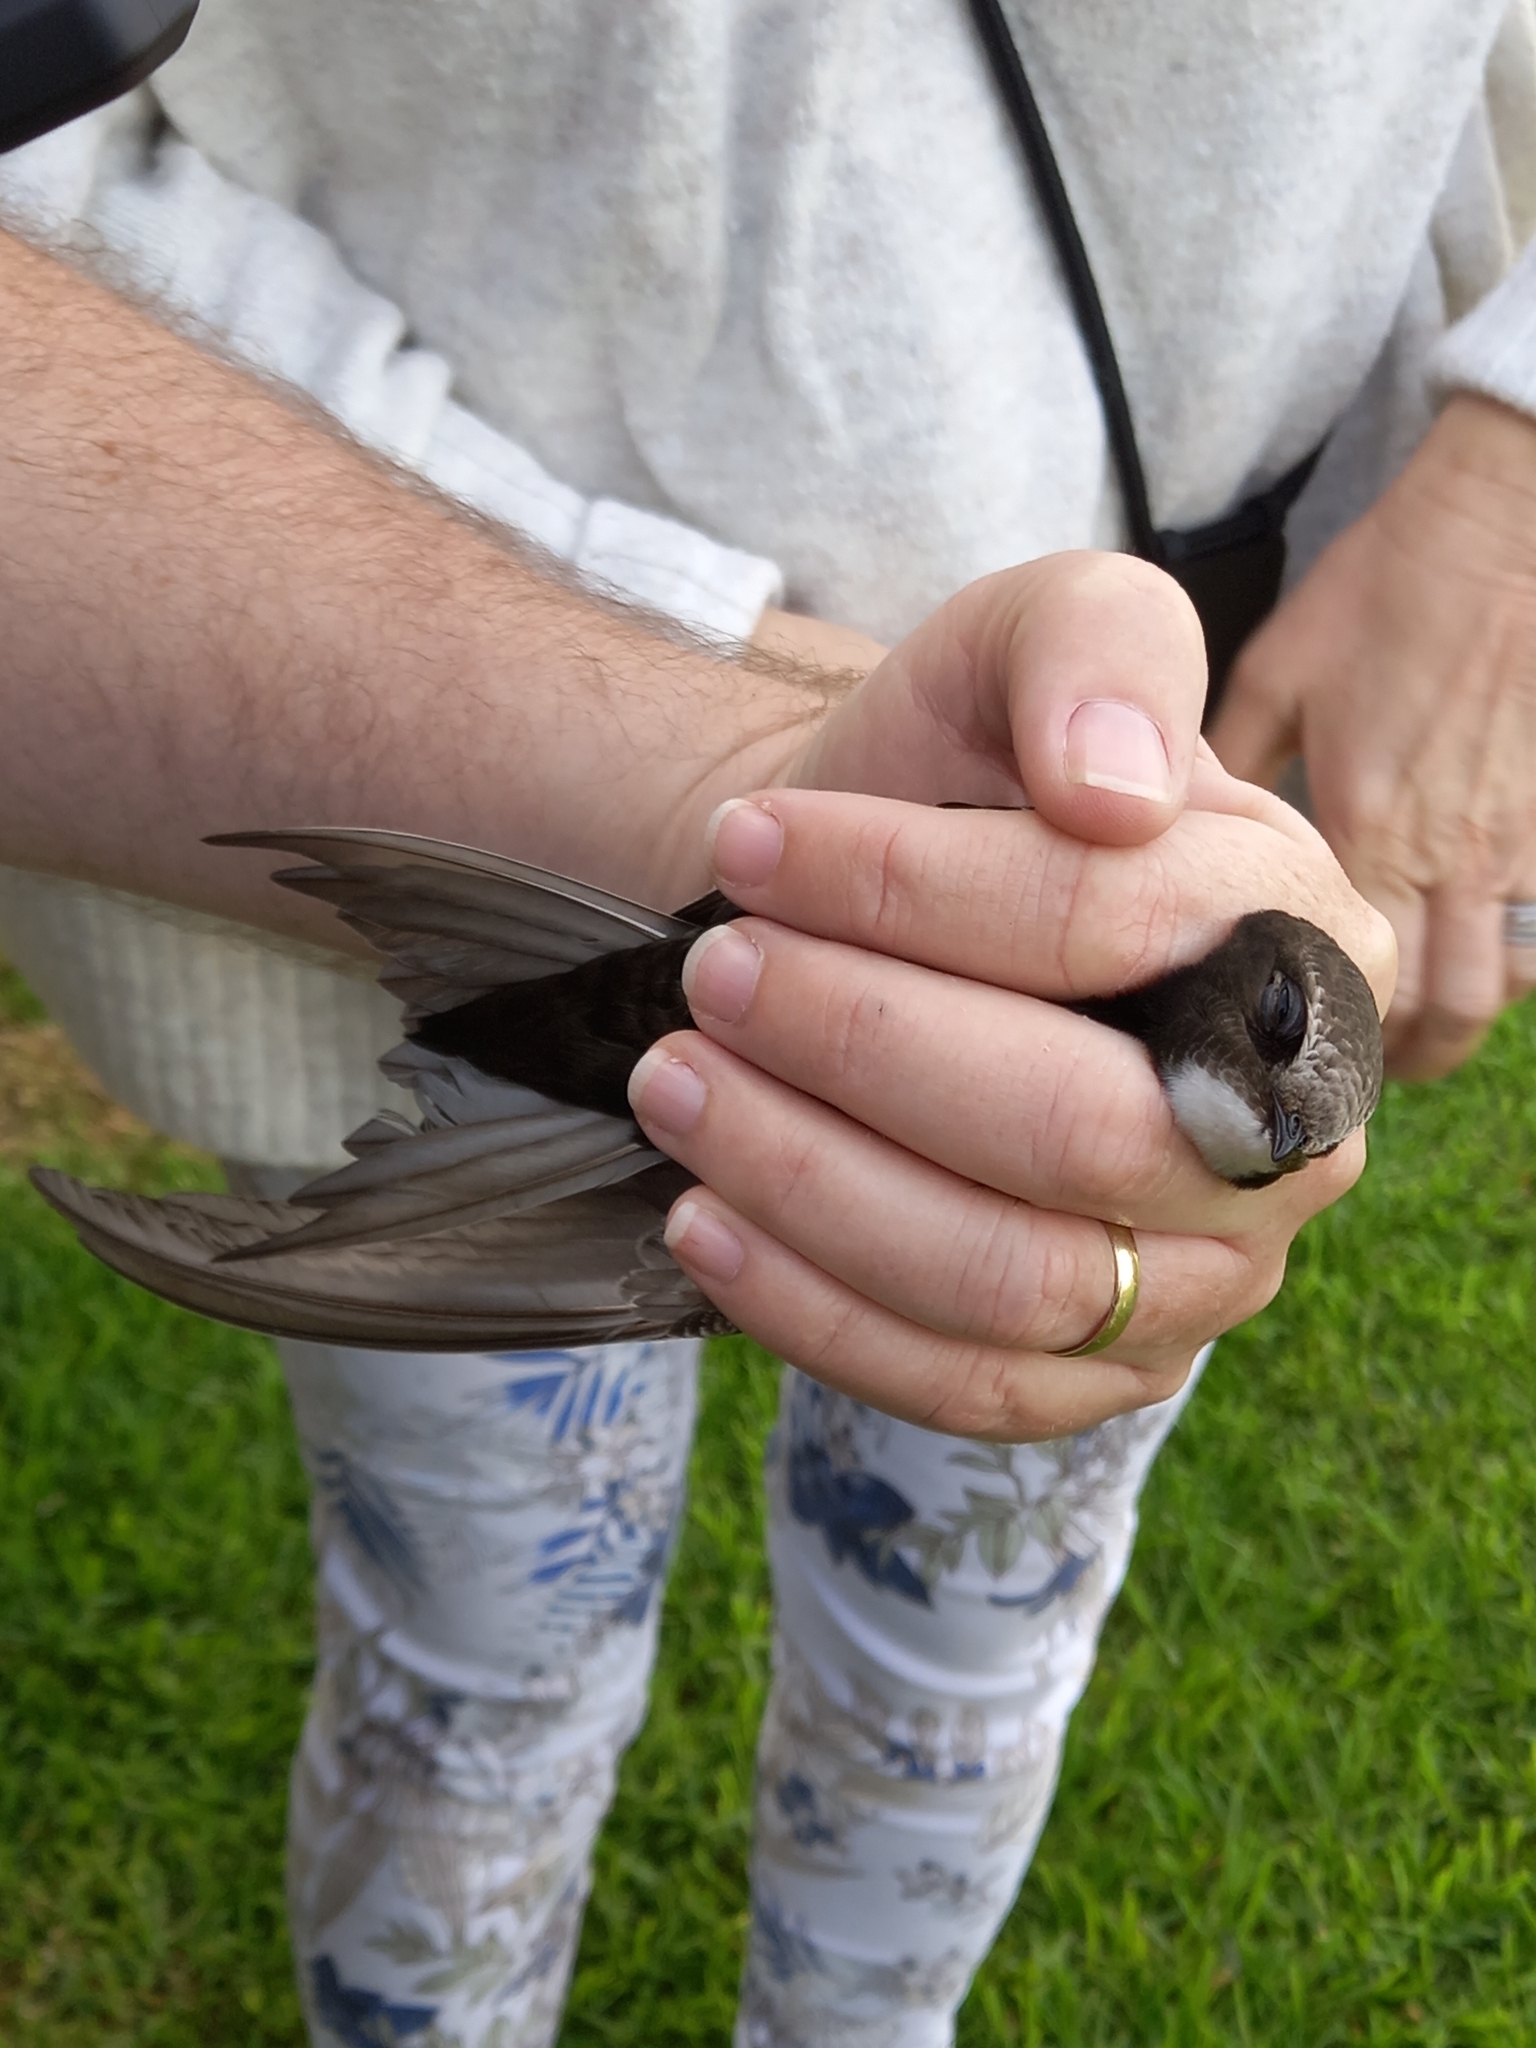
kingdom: Animalia
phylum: Chordata
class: Aves
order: Apodiformes
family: Apodidae
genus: Apus
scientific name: Apus caffer
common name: White-rumped swift
